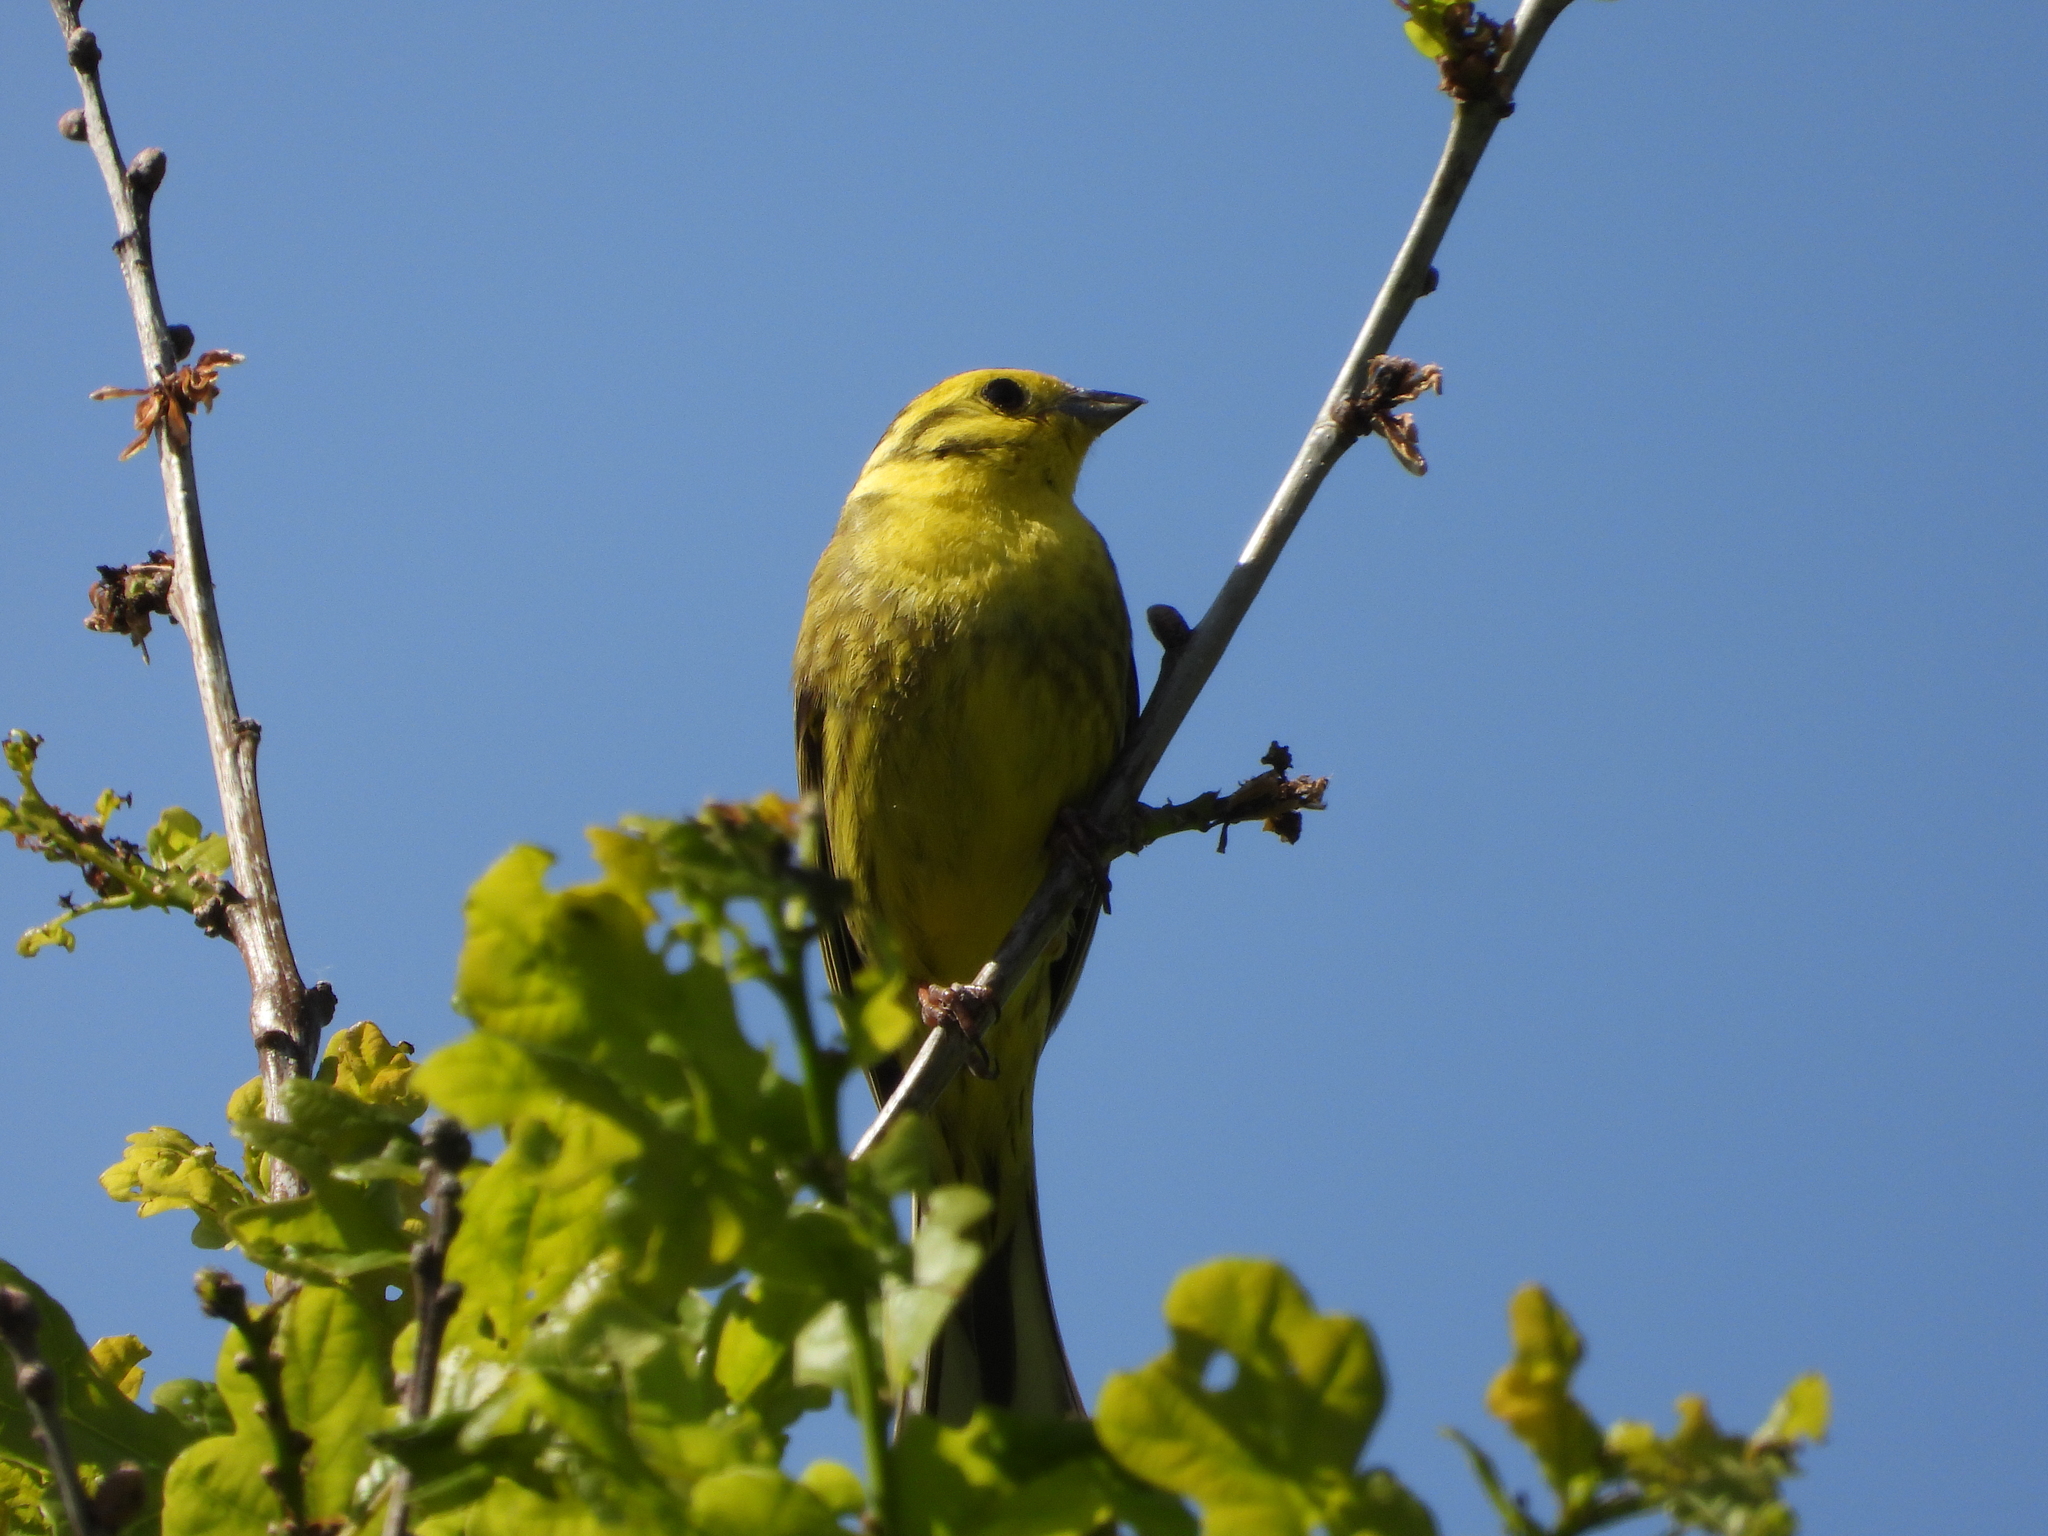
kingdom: Animalia
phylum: Chordata
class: Aves
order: Passeriformes
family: Emberizidae
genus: Emberiza
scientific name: Emberiza citrinella
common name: Yellowhammer
